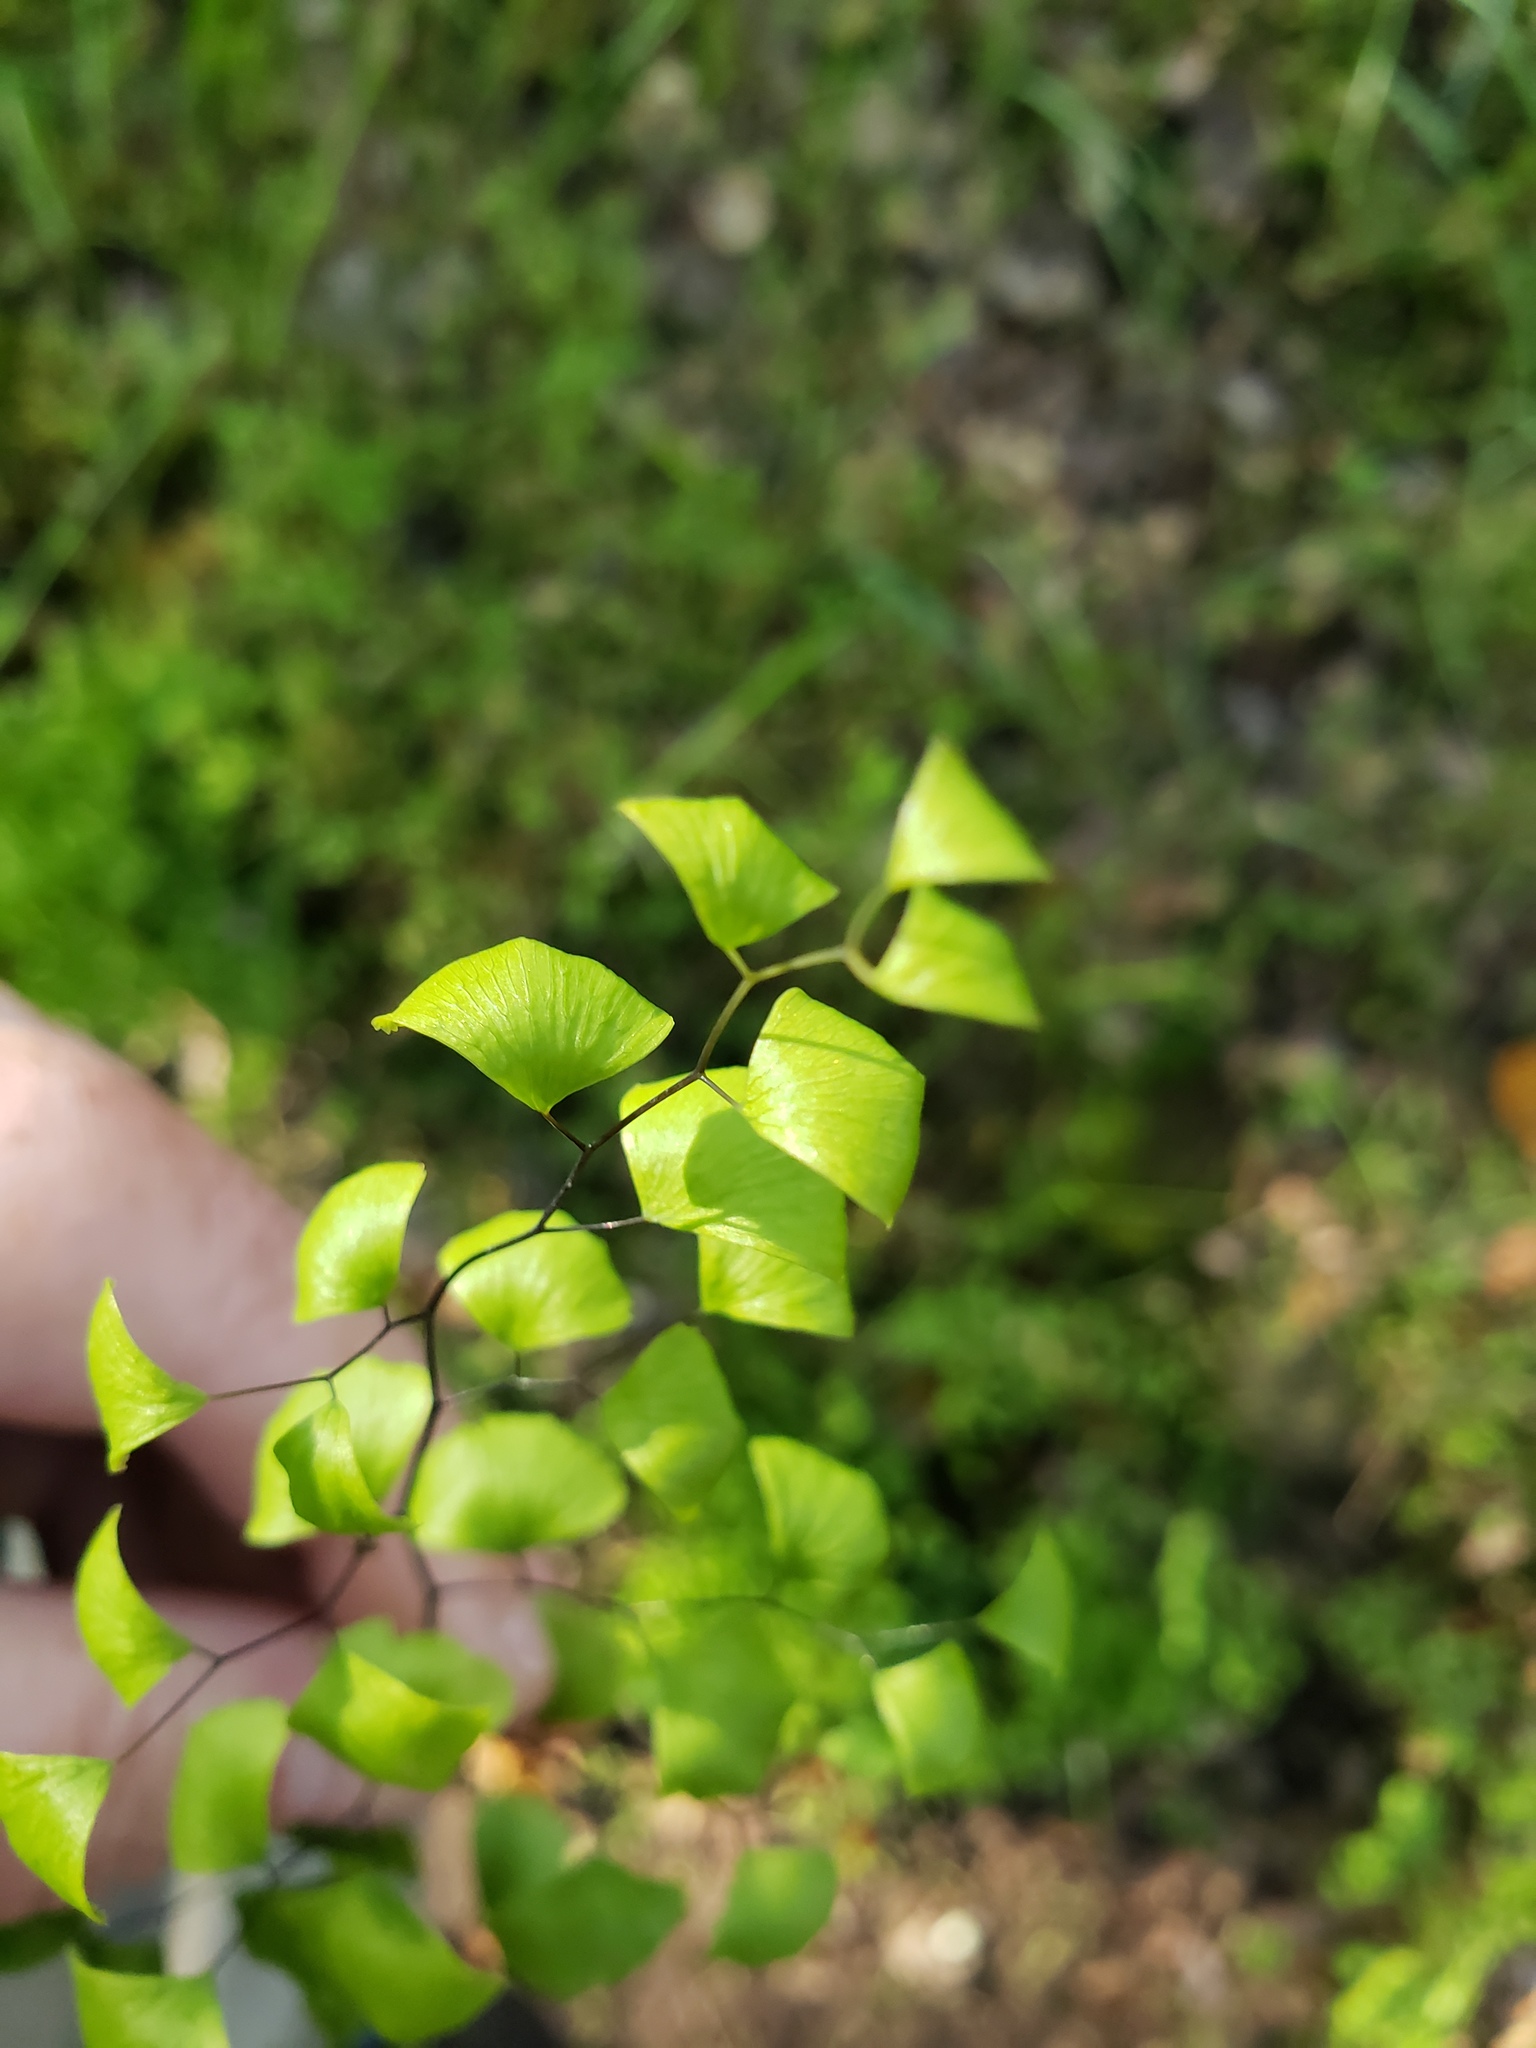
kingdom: Plantae
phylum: Tracheophyta
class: Polypodiopsida
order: Polypodiales
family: Pteridaceae
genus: Adiantum
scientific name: Adiantum jordanii
